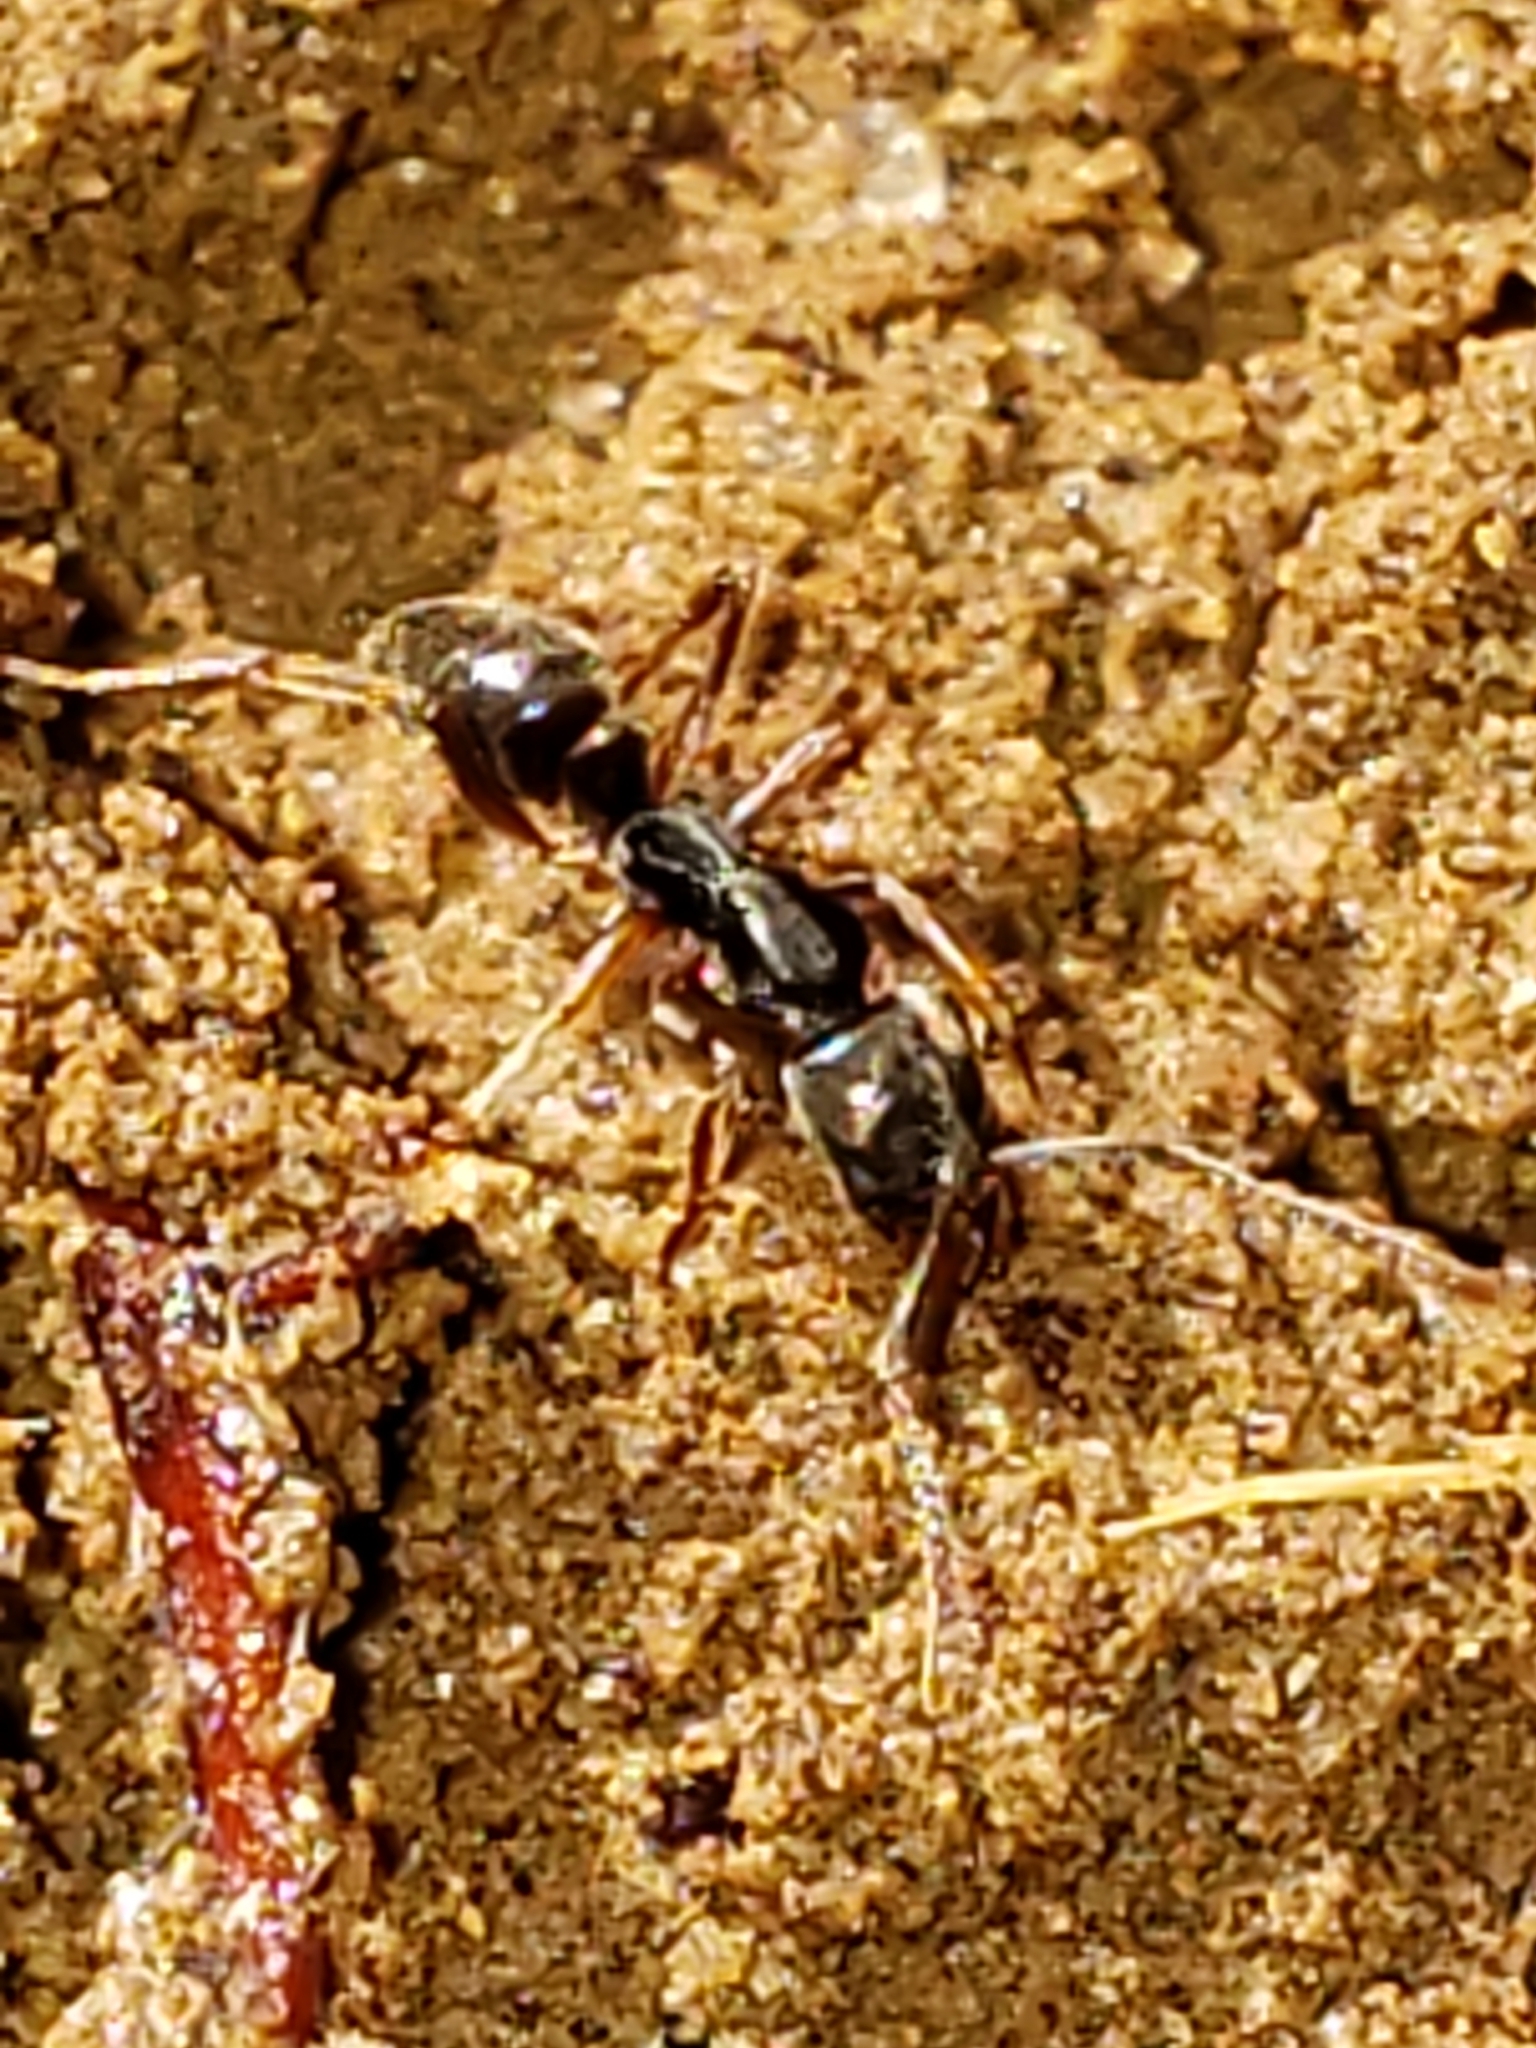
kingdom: Animalia
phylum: Arthropoda
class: Insecta
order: Hymenoptera
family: Formicidae
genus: Pachycondyla
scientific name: Pachycondyla chinensis
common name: Asian needle ant
